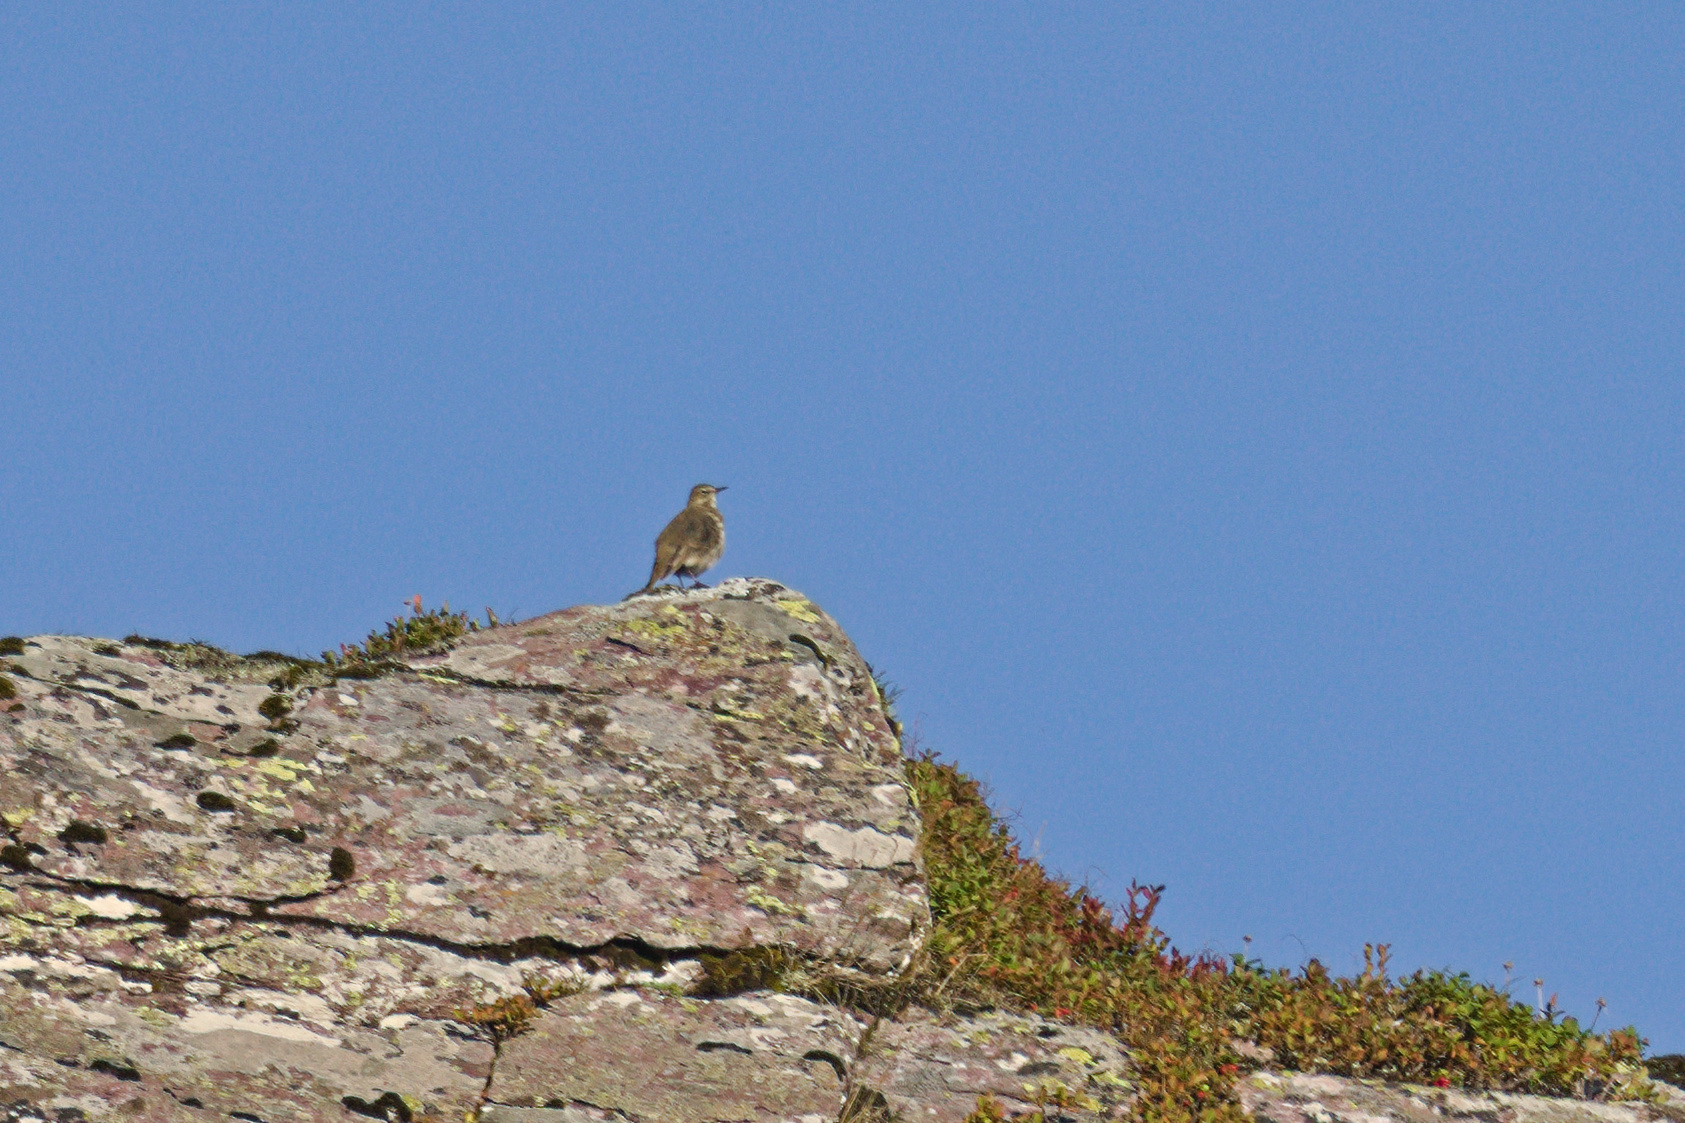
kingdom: Animalia
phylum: Chordata
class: Aves
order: Passeriformes
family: Motacillidae
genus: Anthus
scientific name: Anthus spinoletta
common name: Water pipit
